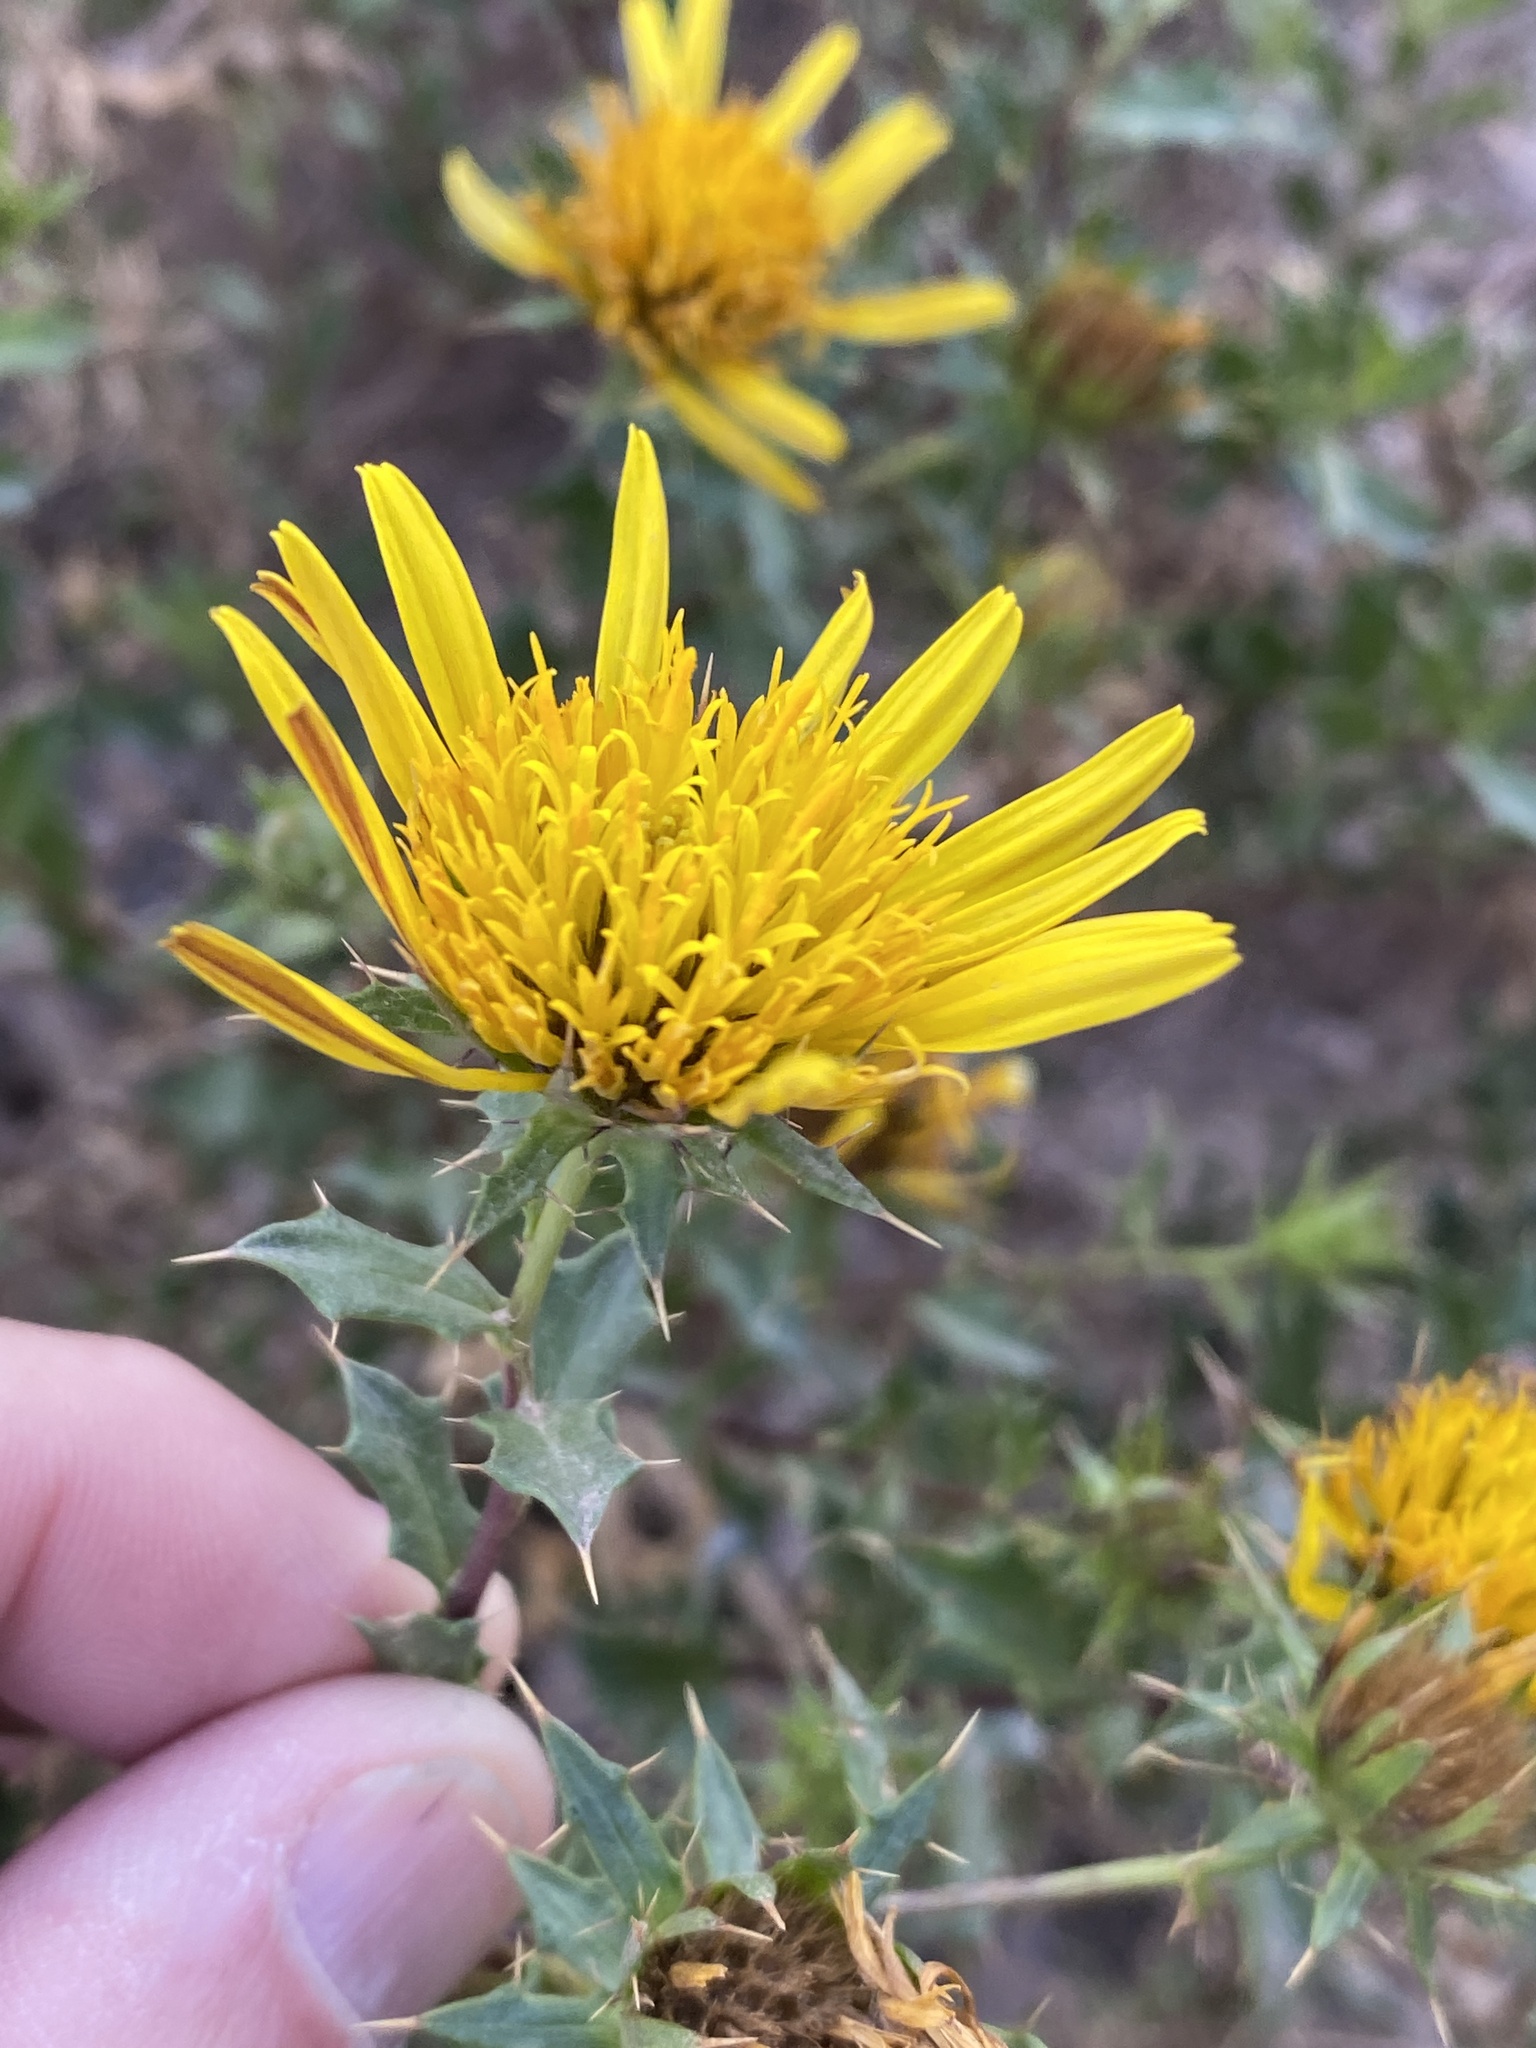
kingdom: Plantae
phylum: Tracheophyta
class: Magnoliopsida
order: Asterales
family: Asteraceae
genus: Berkheya
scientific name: Berkheya spinosa
